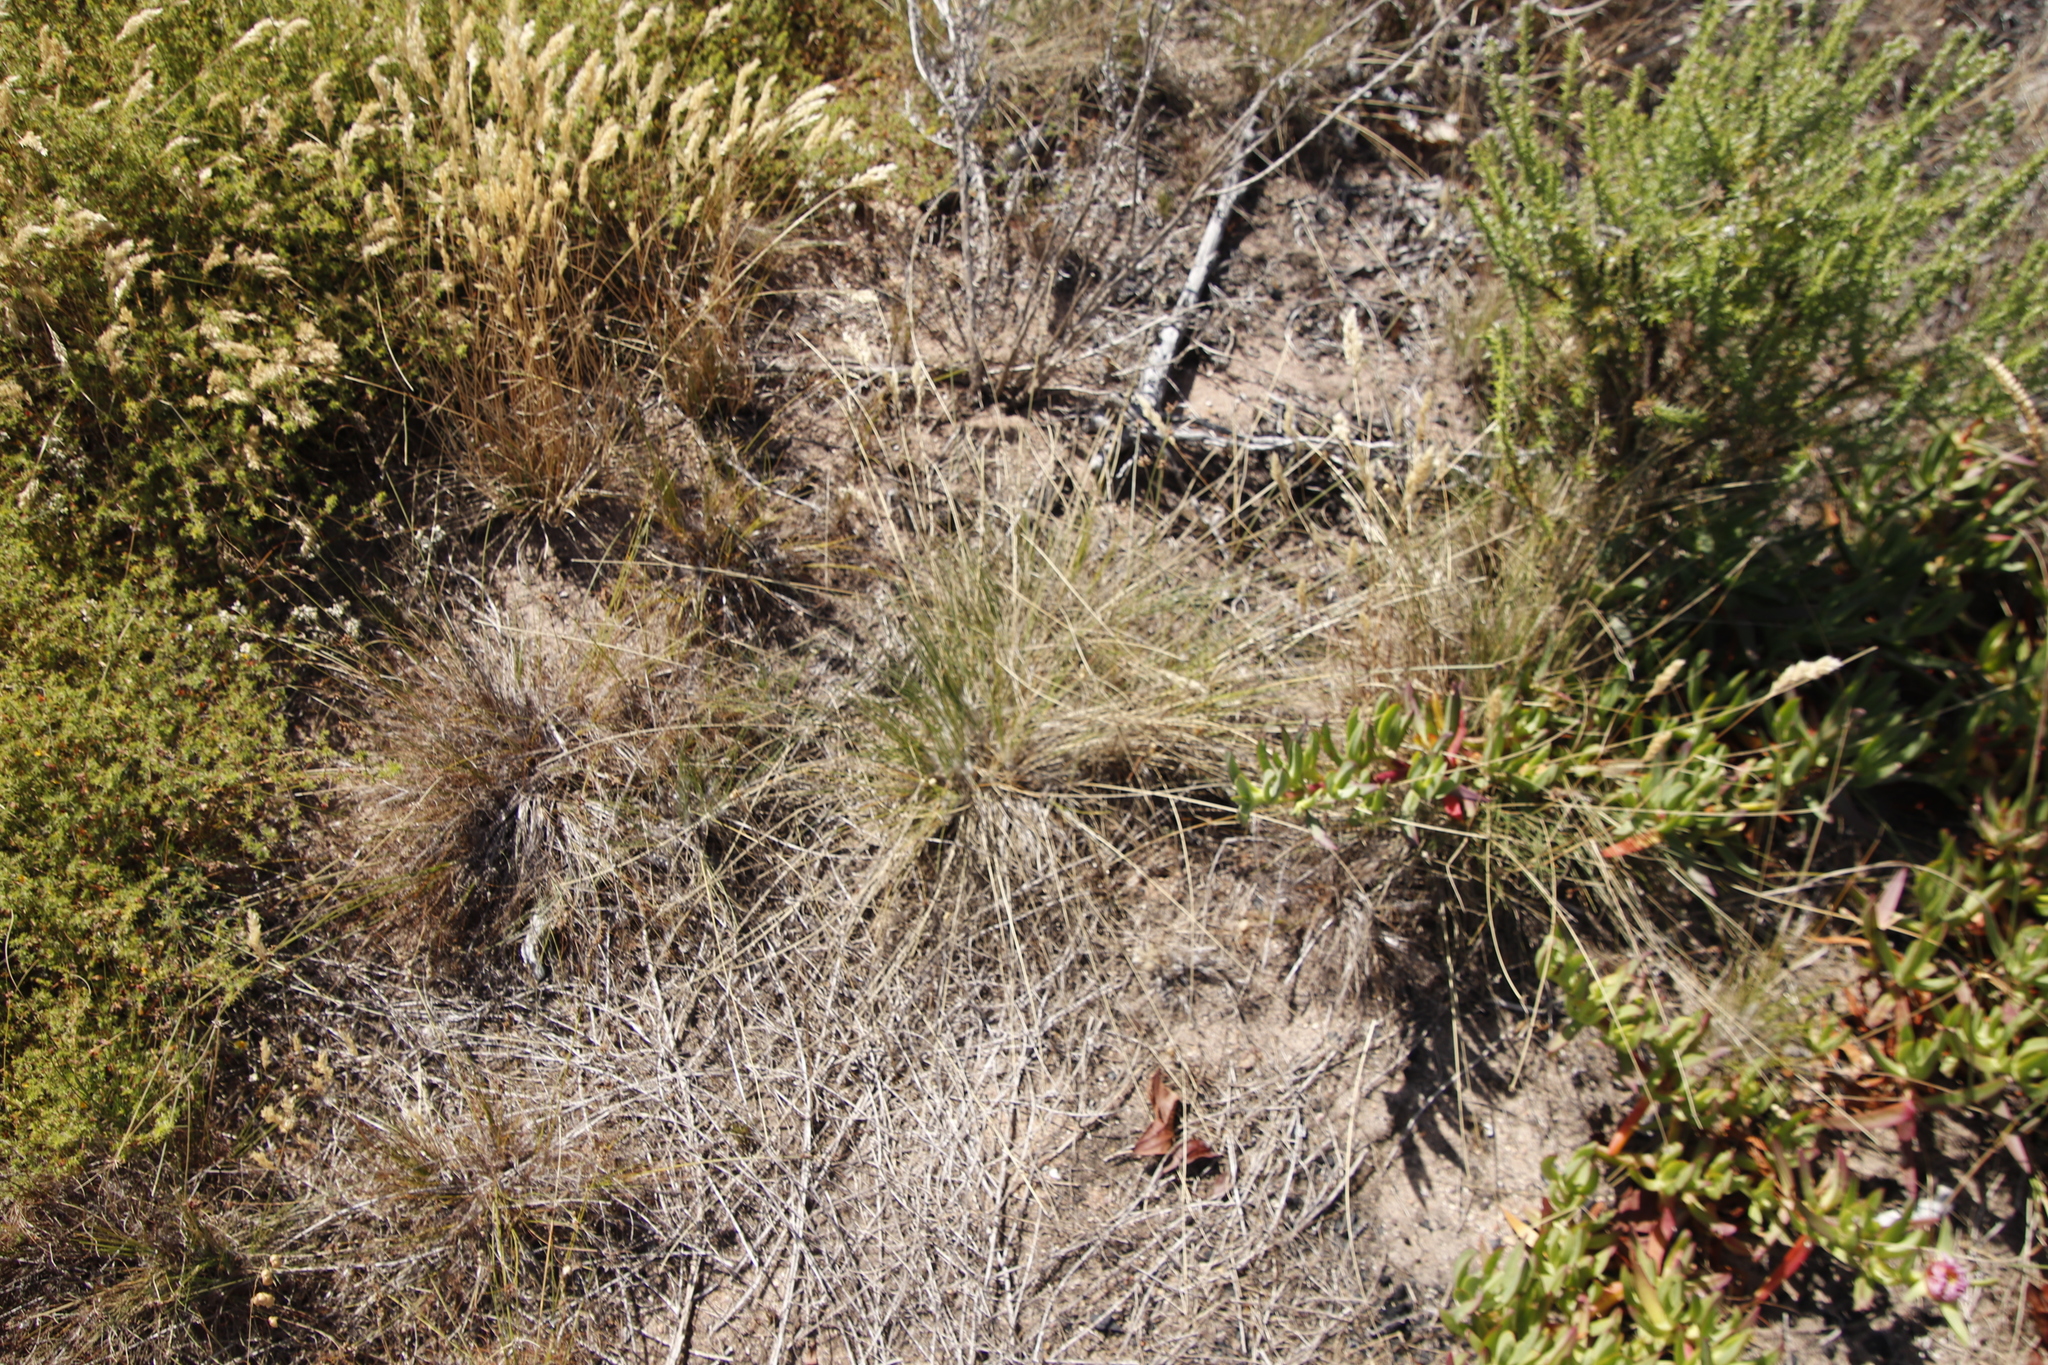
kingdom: Plantae
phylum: Tracheophyta
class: Liliopsida
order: Poales
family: Cyperaceae
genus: Ficinia
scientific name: Ficinia paradoxa
